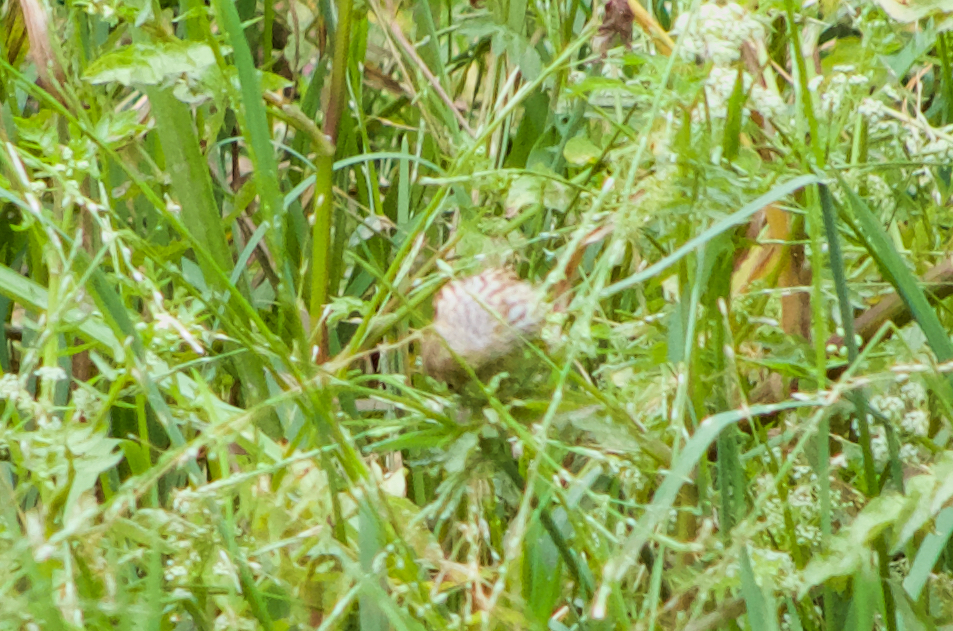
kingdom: Animalia
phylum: Chordata
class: Aves
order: Passeriformes
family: Fringillidae
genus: Serinus
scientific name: Serinus serinus
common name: European serin
